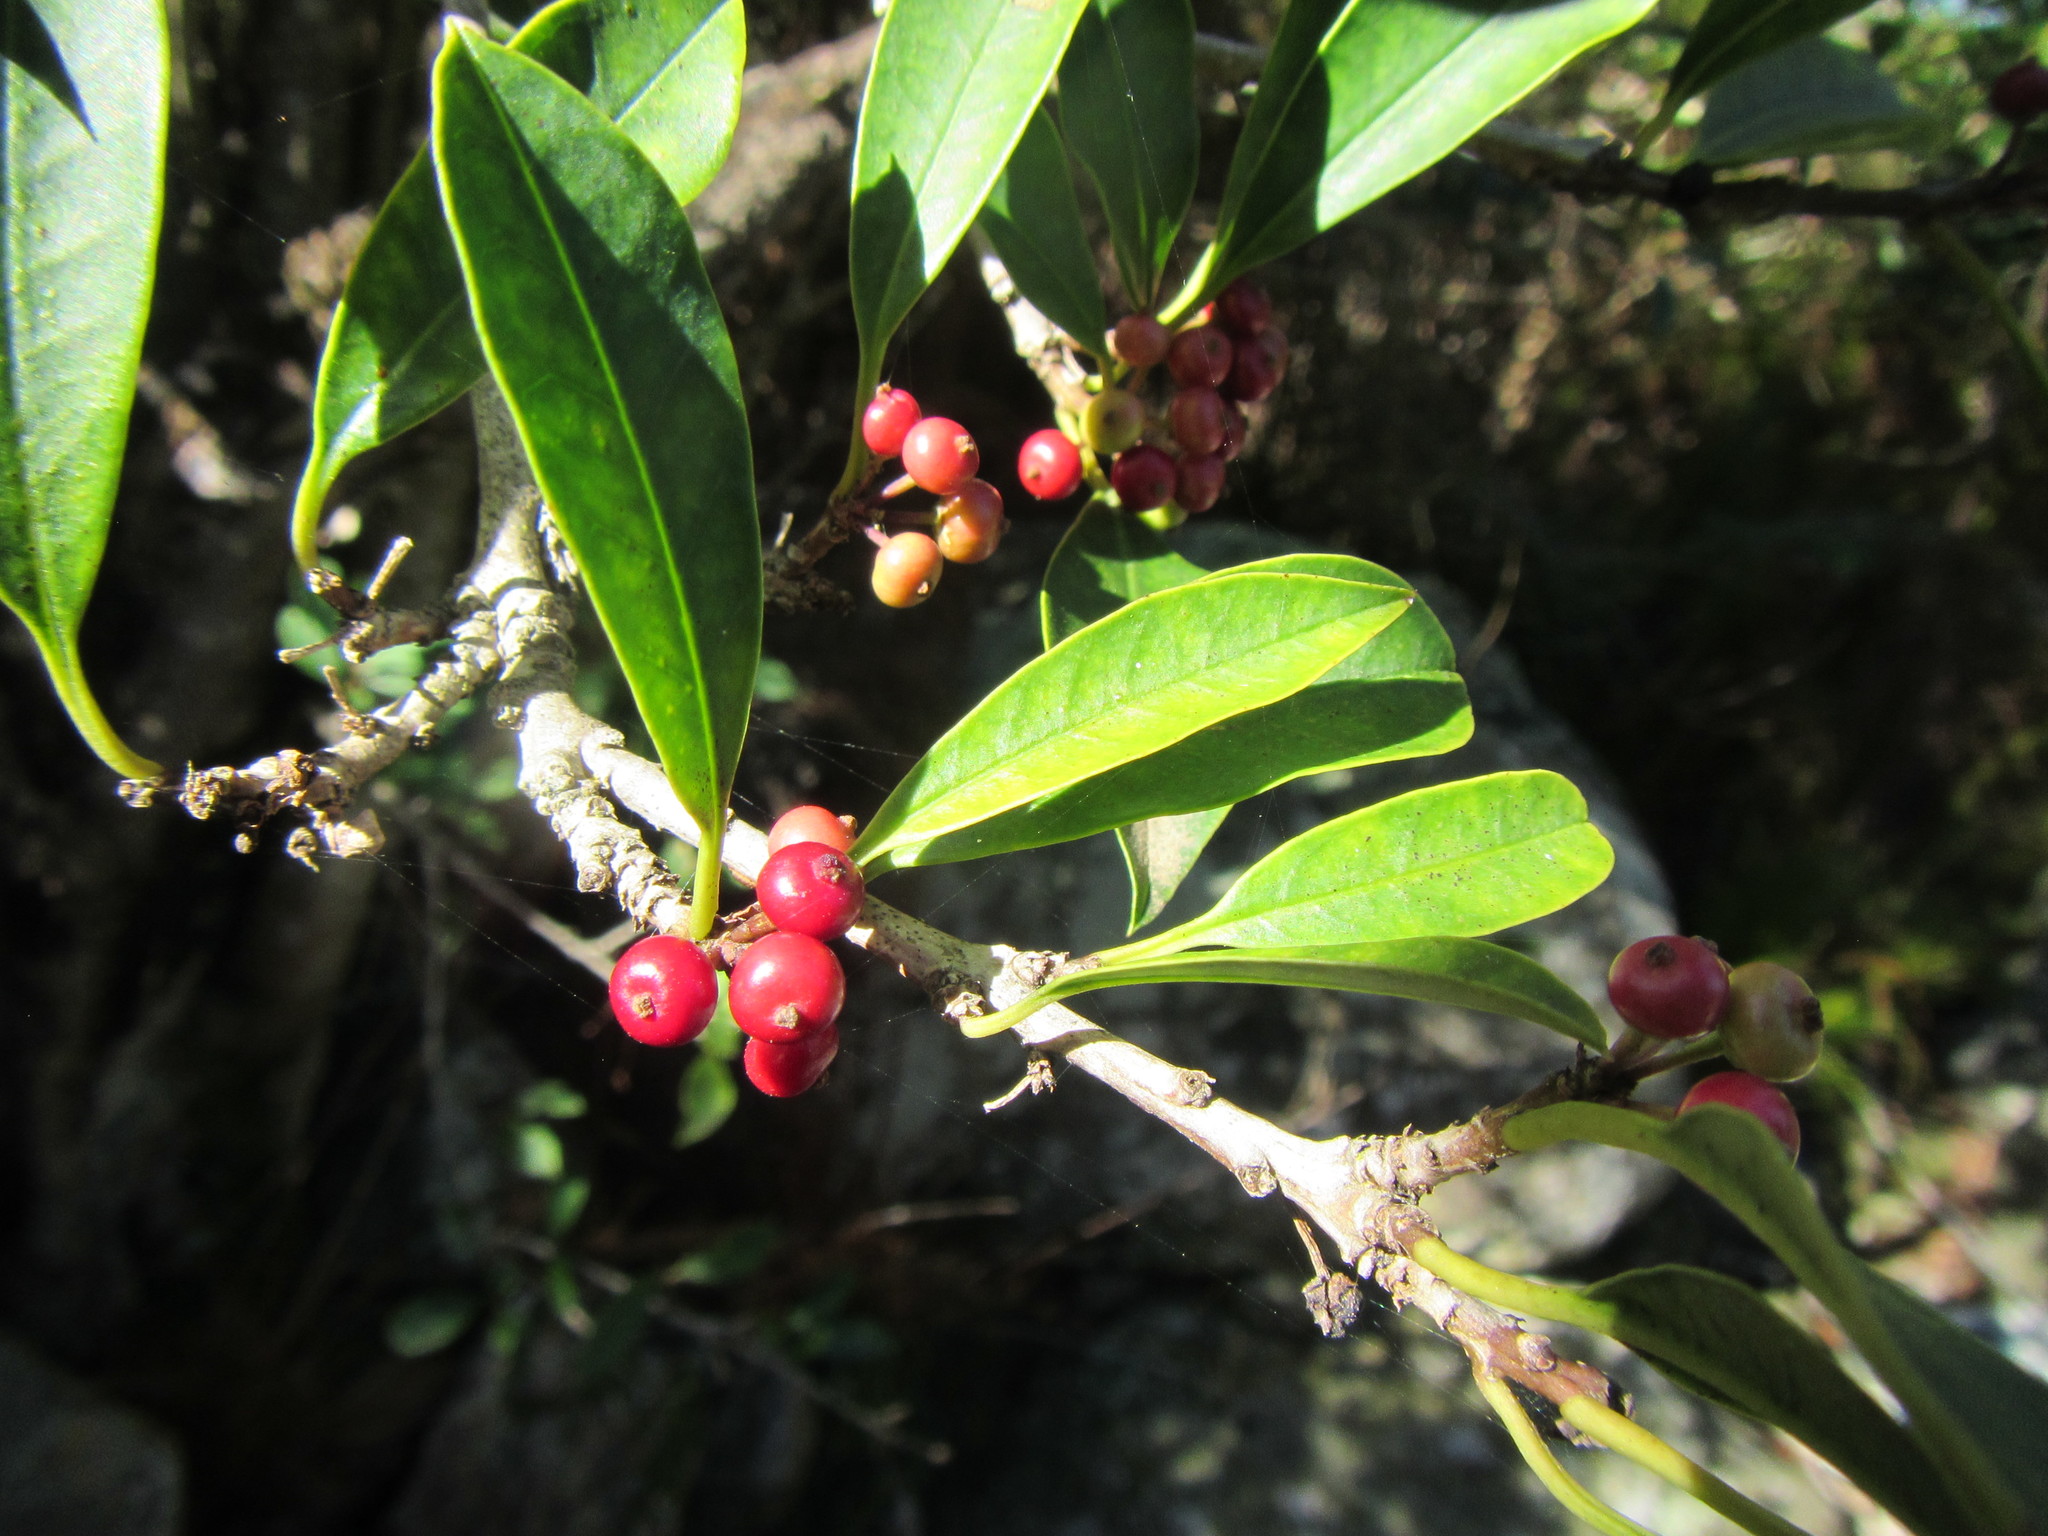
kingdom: Plantae
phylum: Tracheophyta
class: Magnoliopsida
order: Aquifoliales
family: Aquifoliaceae
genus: Ilex
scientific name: Ilex mitis
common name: African holly
